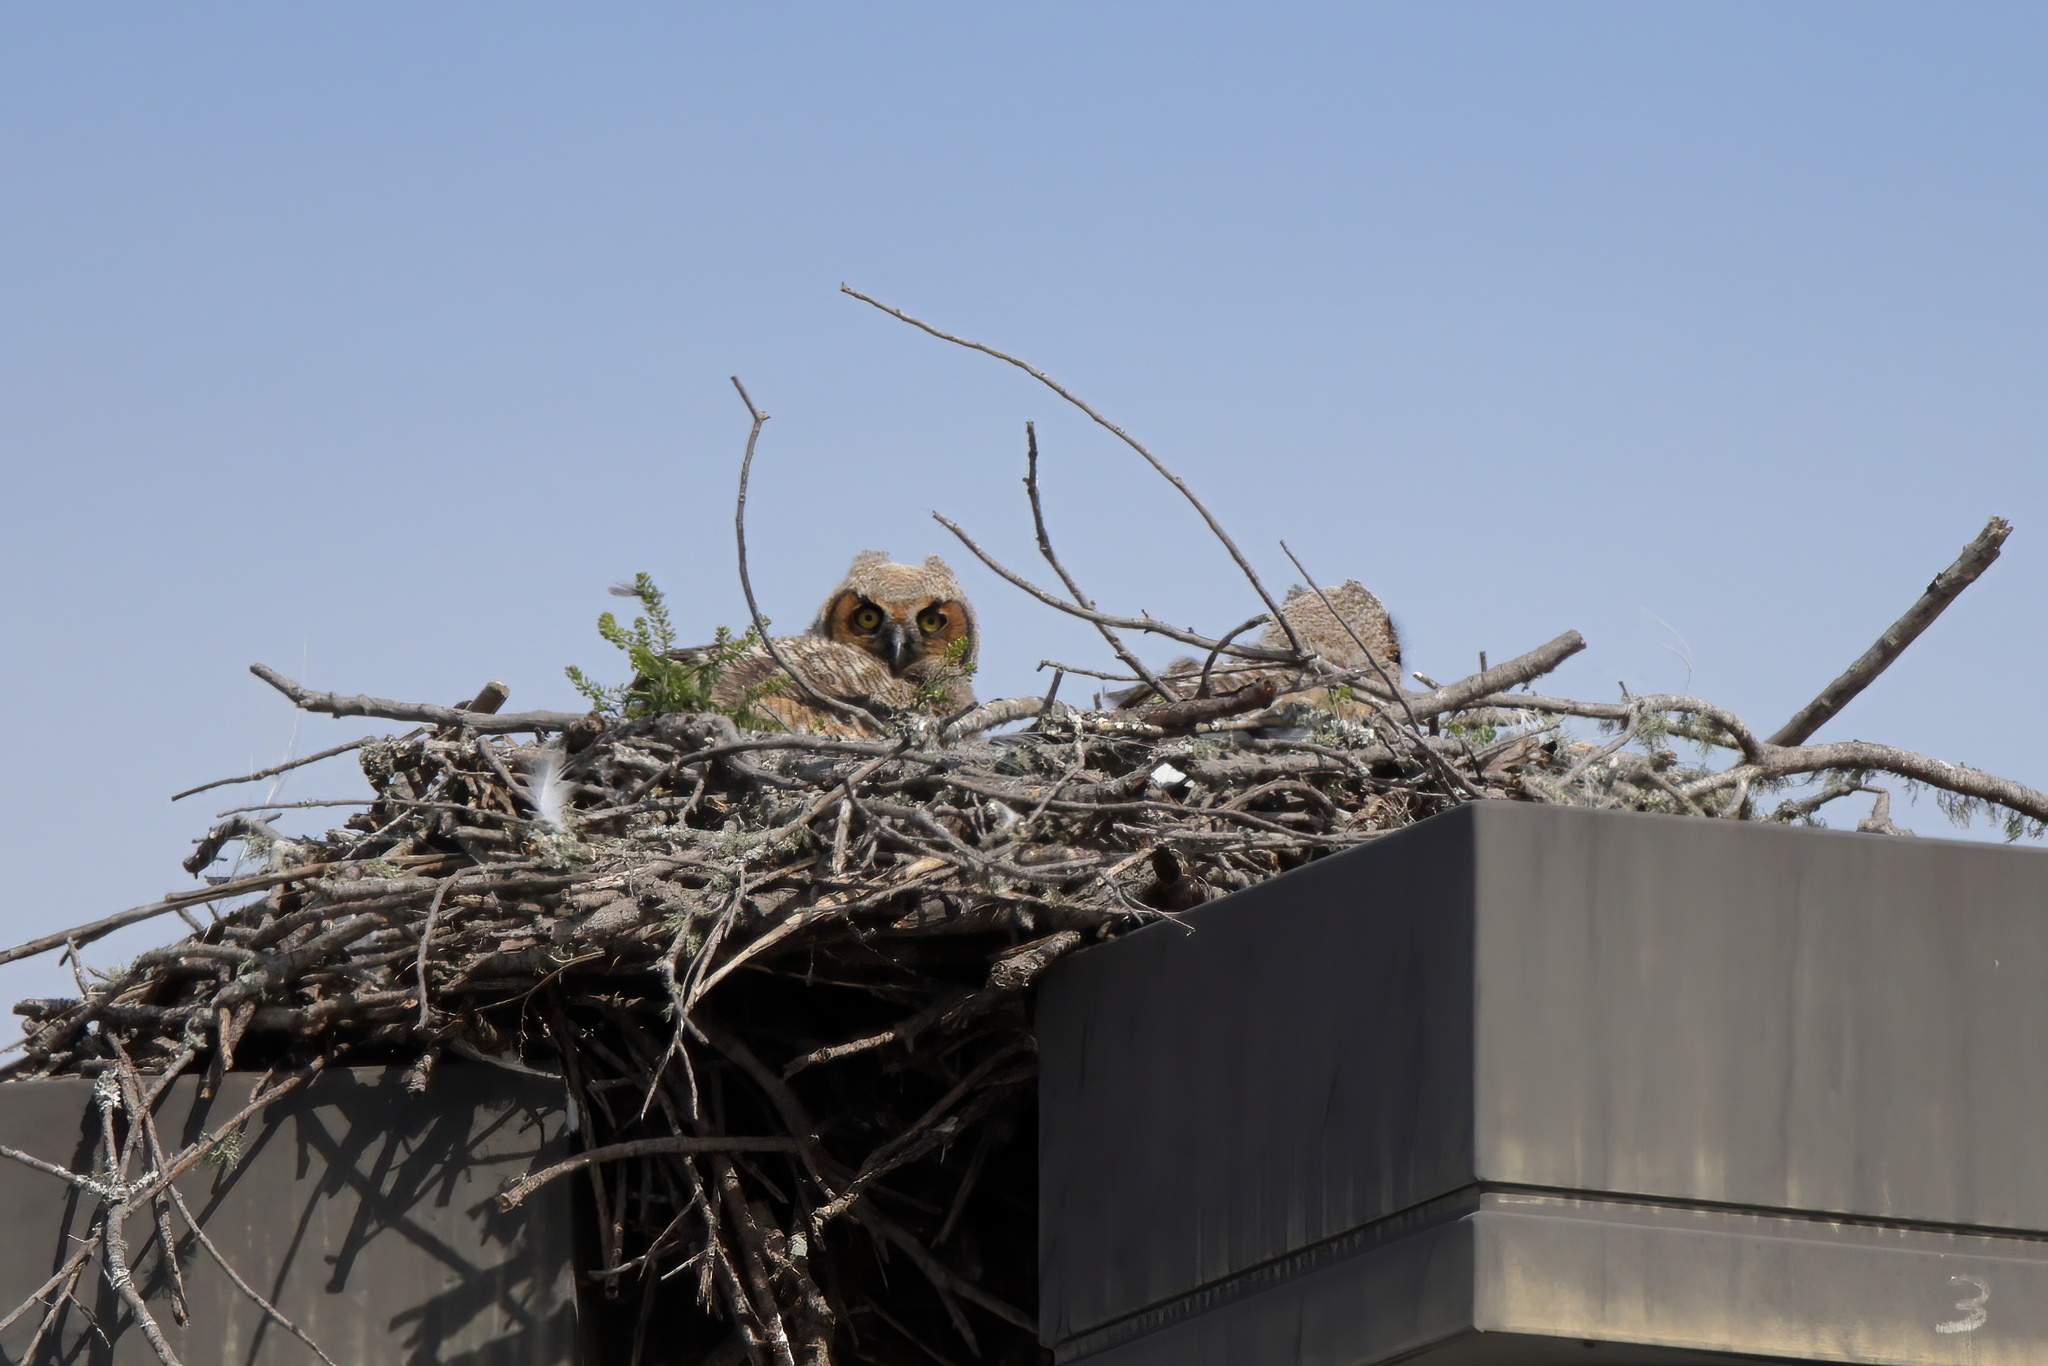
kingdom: Animalia
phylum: Chordata
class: Aves
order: Strigiformes
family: Strigidae
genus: Bubo
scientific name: Bubo virginianus
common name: Great horned owl
